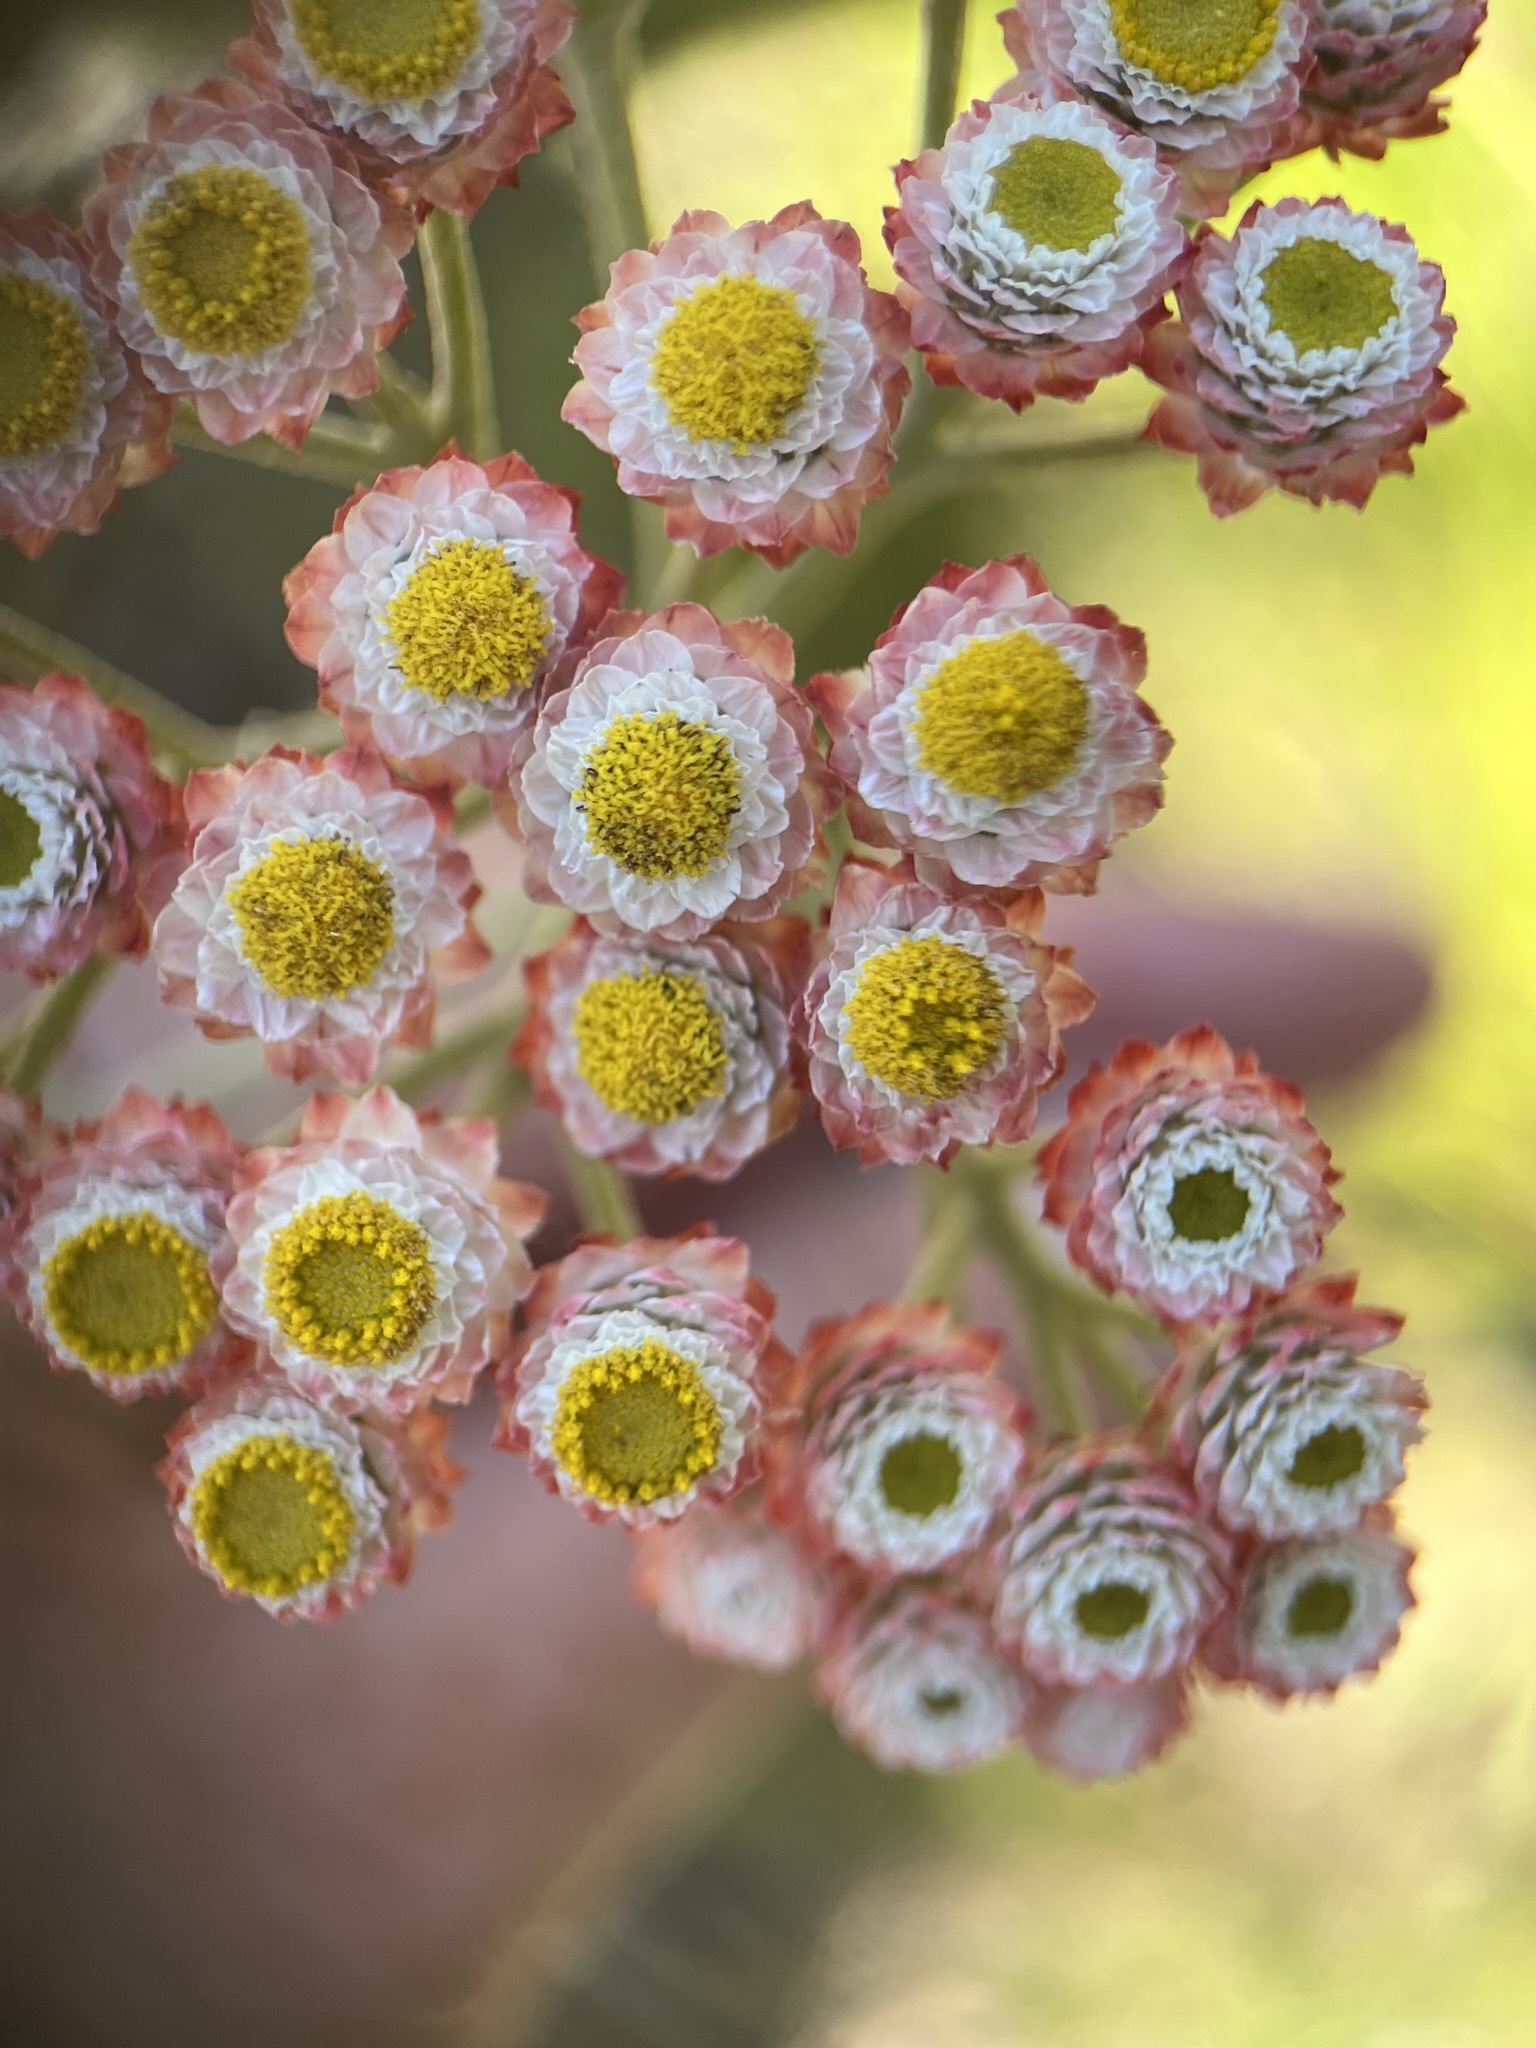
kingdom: Plantae
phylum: Tracheophyta
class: Magnoliopsida
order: Asterales
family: Asteraceae
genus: Helichrysum
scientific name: Helichrysum felinum
